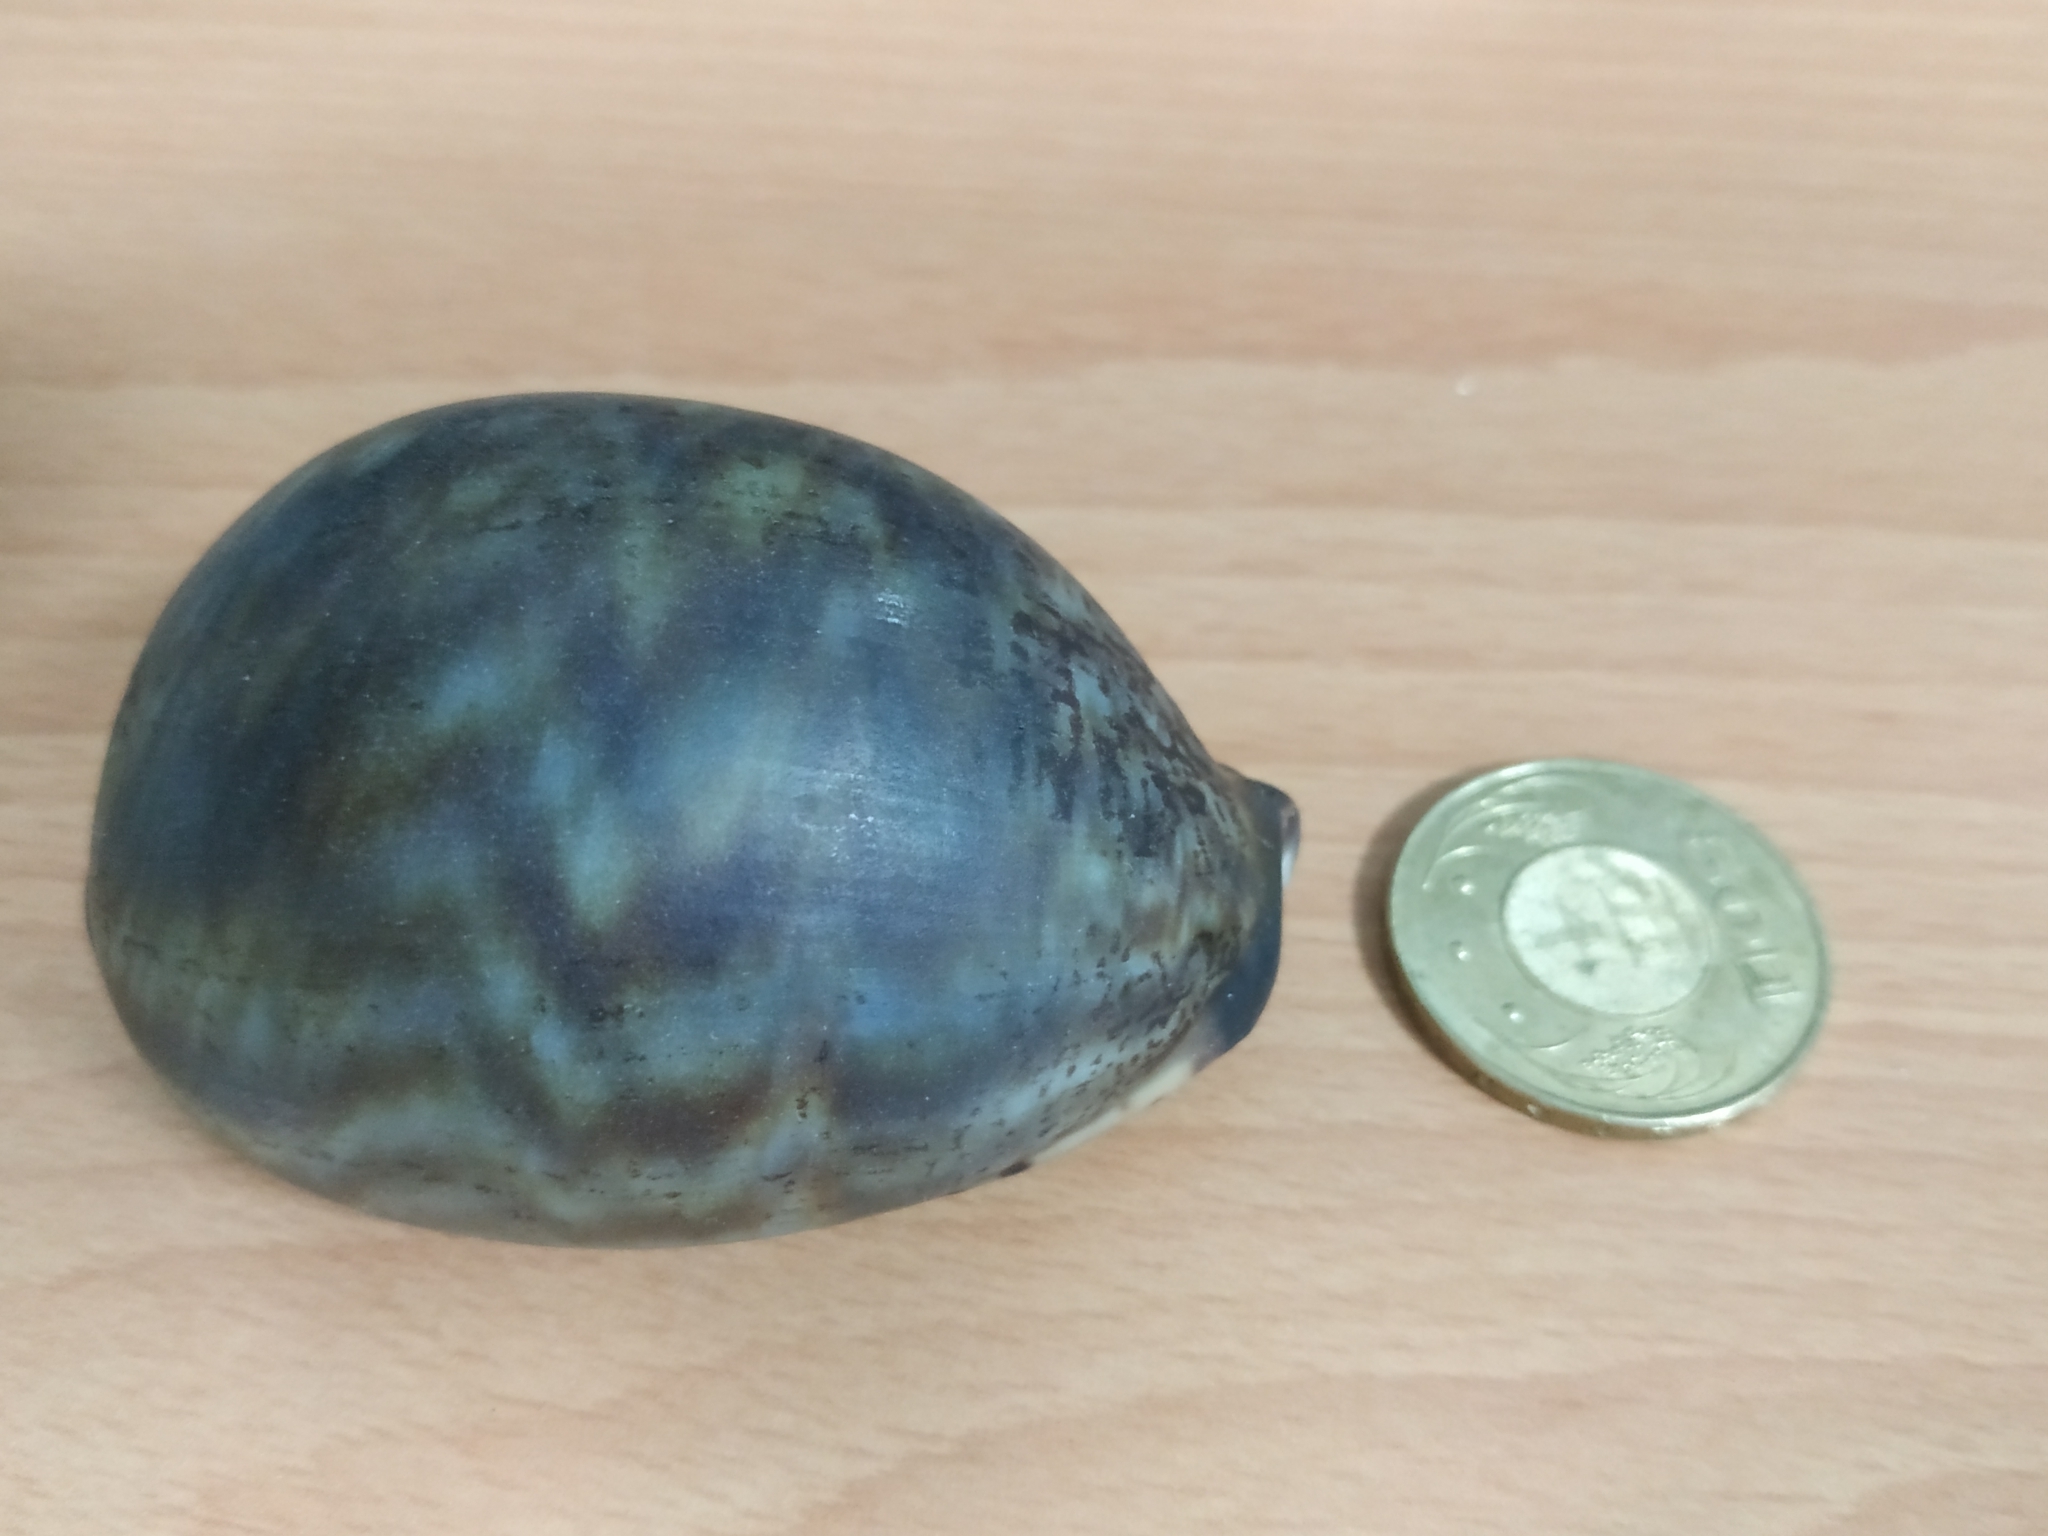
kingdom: Animalia
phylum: Mollusca
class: Gastropoda
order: Littorinimorpha
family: Cypraeidae
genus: Mauritia
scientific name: Mauritia arabica
